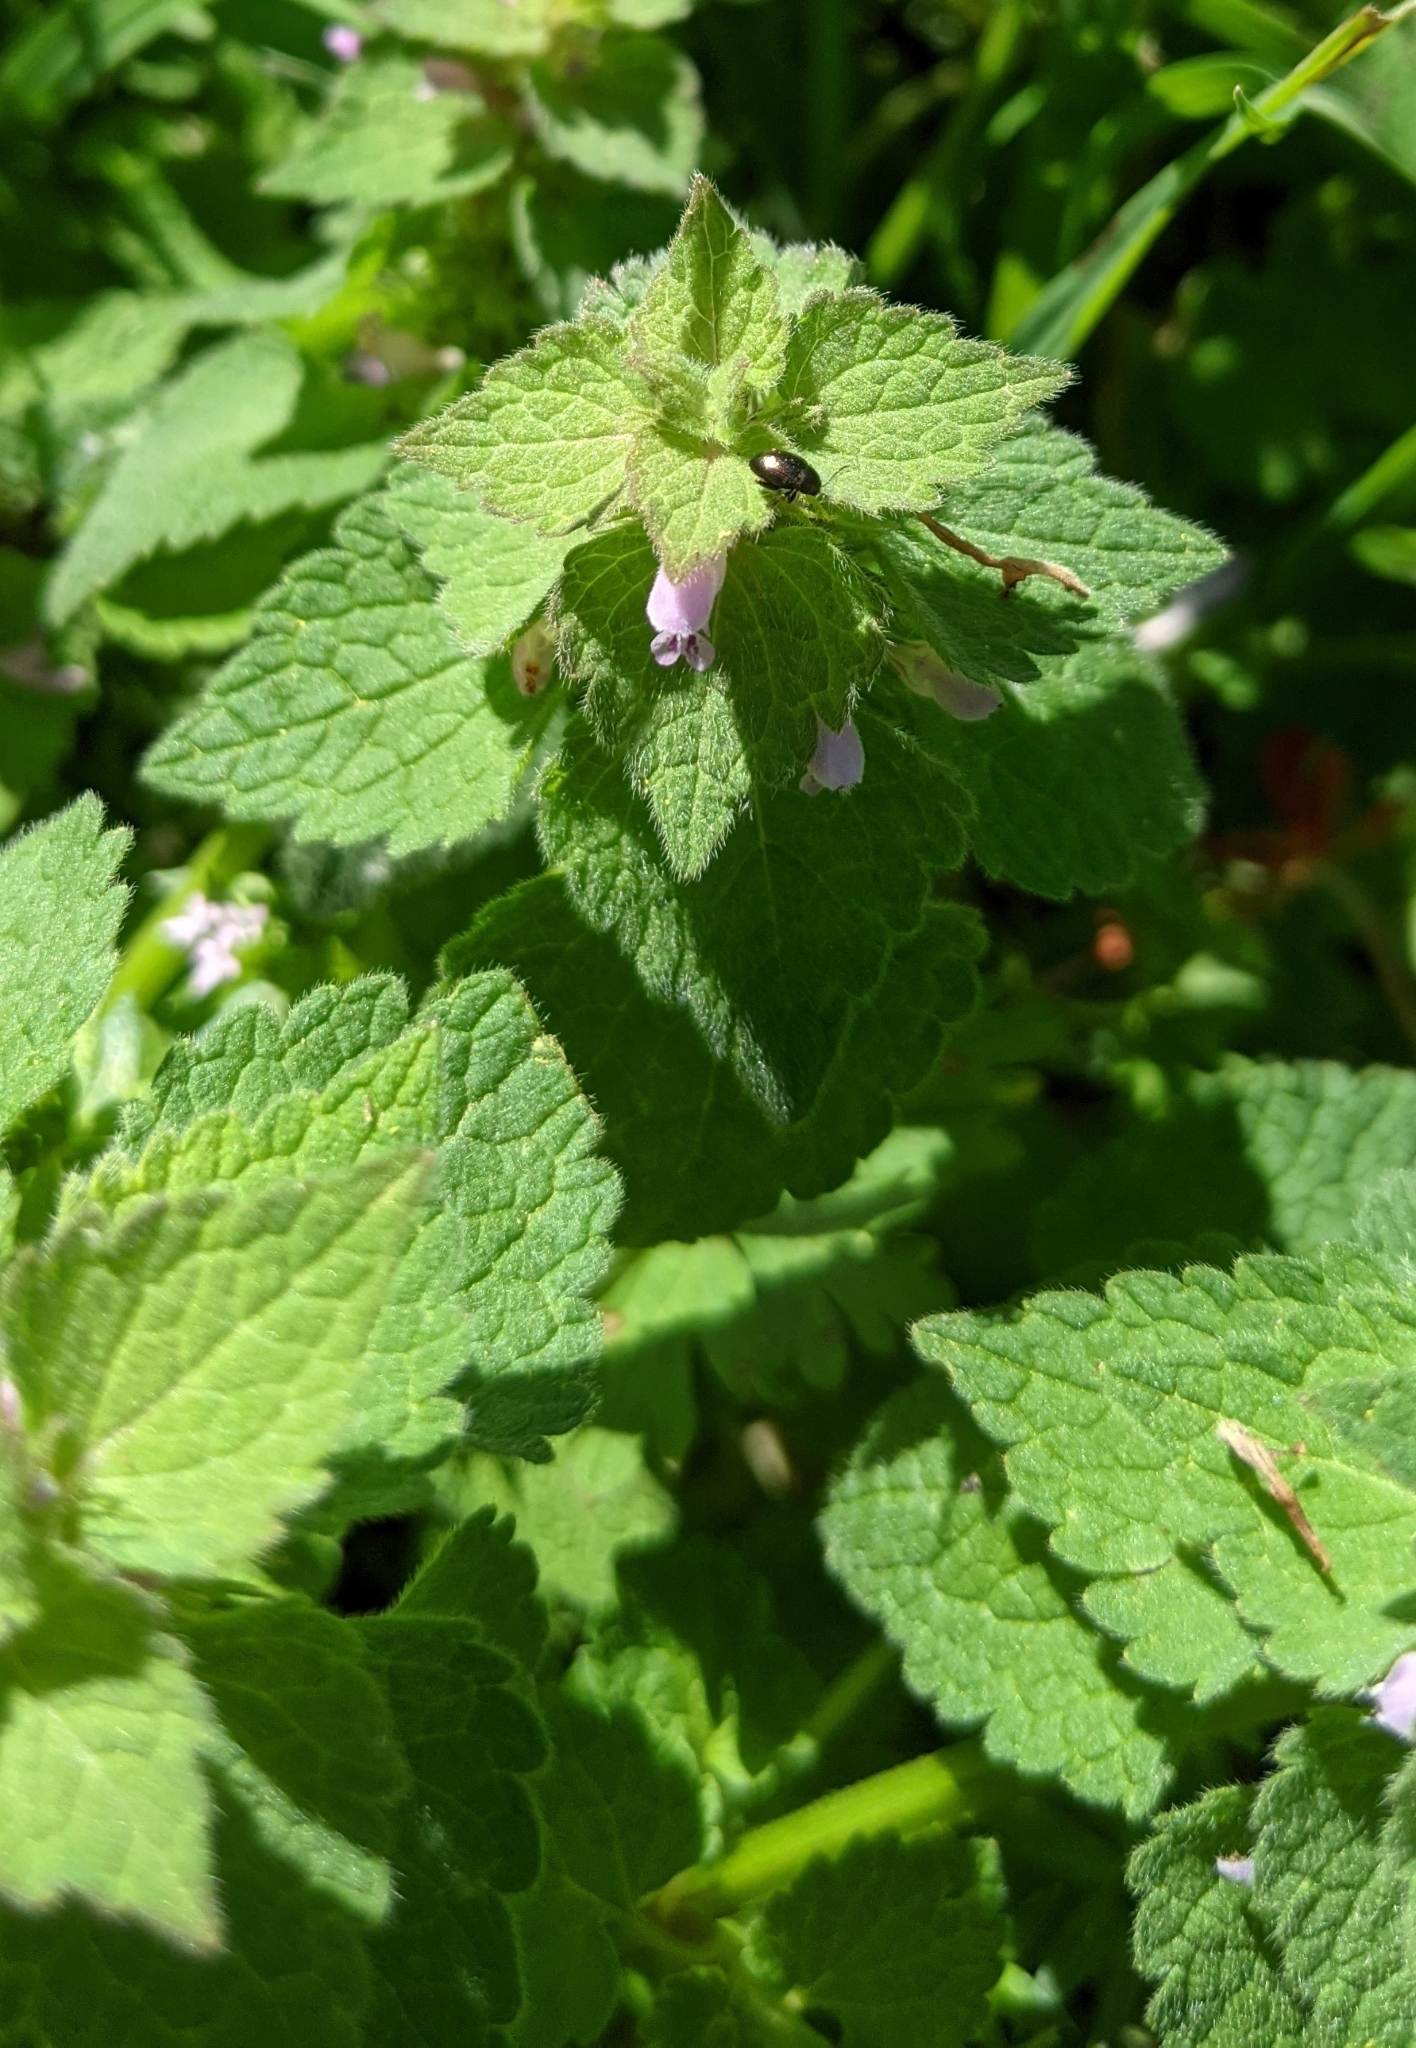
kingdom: Plantae
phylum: Tracheophyta
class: Magnoliopsida
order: Lamiales
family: Lamiaceae
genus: Lamium
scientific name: Lamium purpureum
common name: Red dead-nettle
